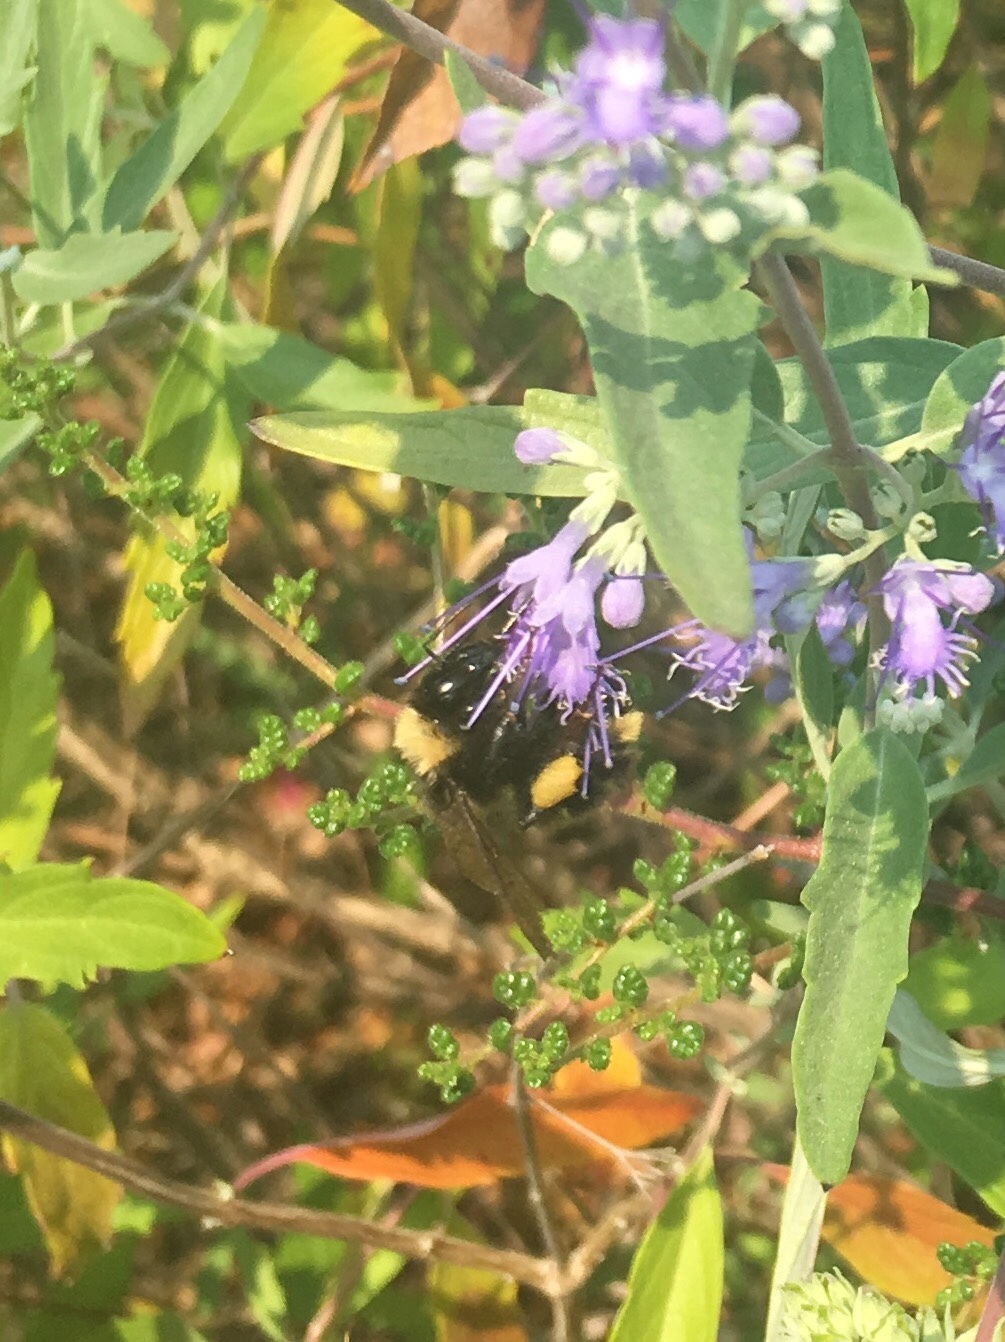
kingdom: Animalia
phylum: Arthropoda
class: Insecta
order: Hymenoptera
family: Apidae
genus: Bombus
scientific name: Bombus californicus
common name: California bumble bee
